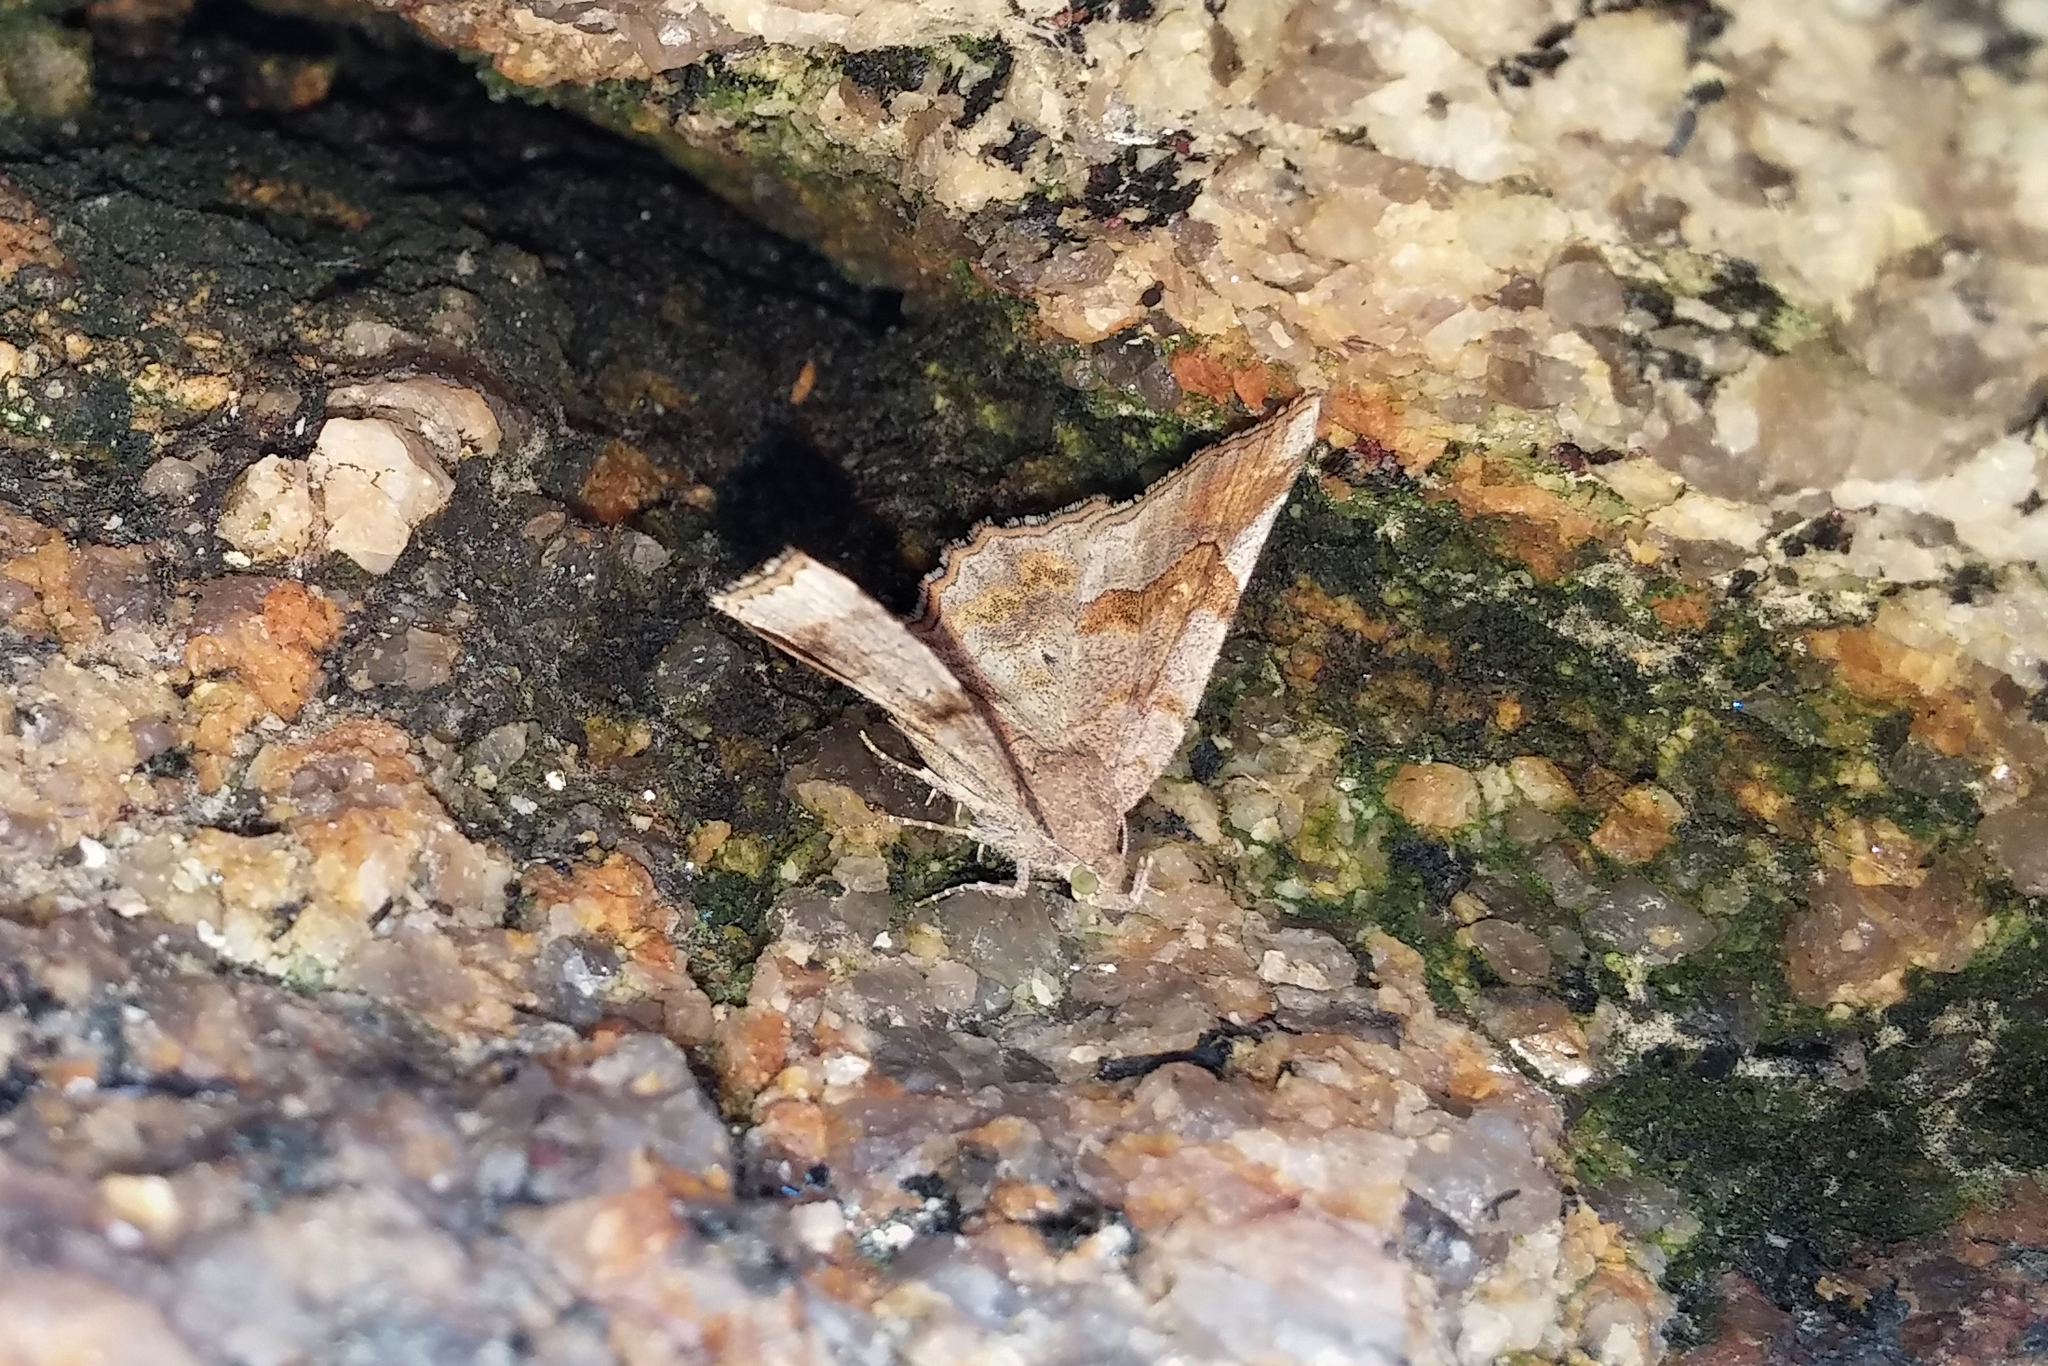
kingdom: Animalia
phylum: Arthropoda
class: Insecta
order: Lepidoptera
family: Erebidae
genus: Pangrapta
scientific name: Pangrapta decoralis
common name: Decorated owlet
